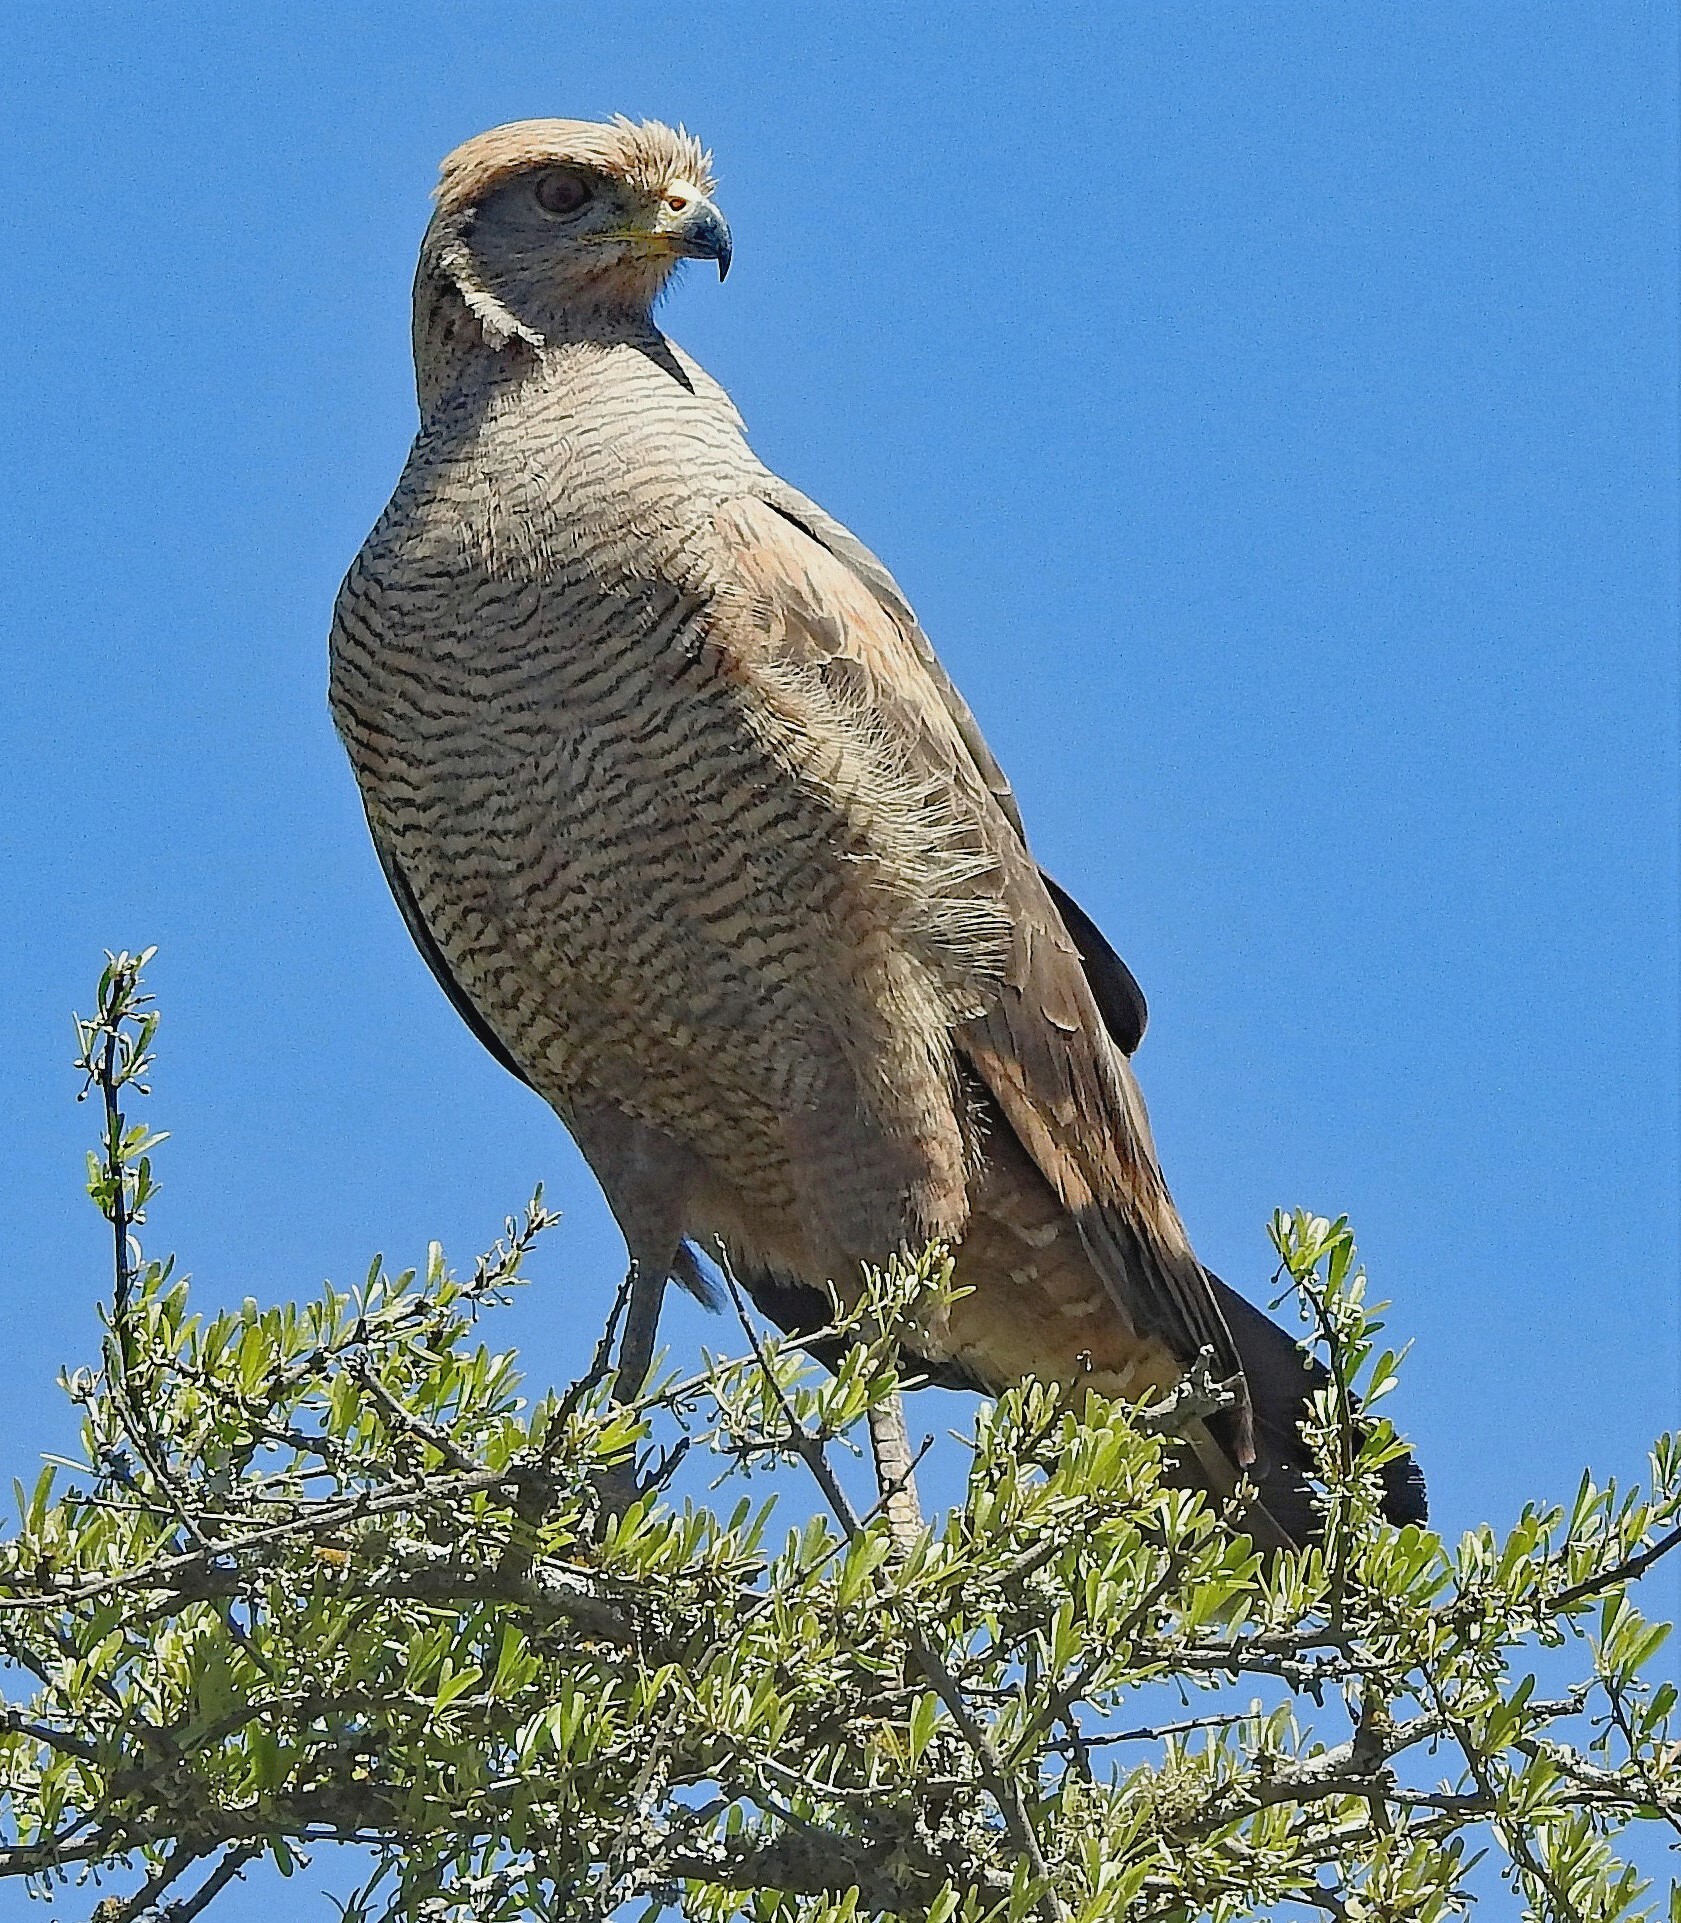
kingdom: Animalia
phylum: Chordata
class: Aves
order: Accipitriformes
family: Accipitridae
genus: Buteogallus
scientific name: Buteogallus meridionalis
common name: Savanna hawk
